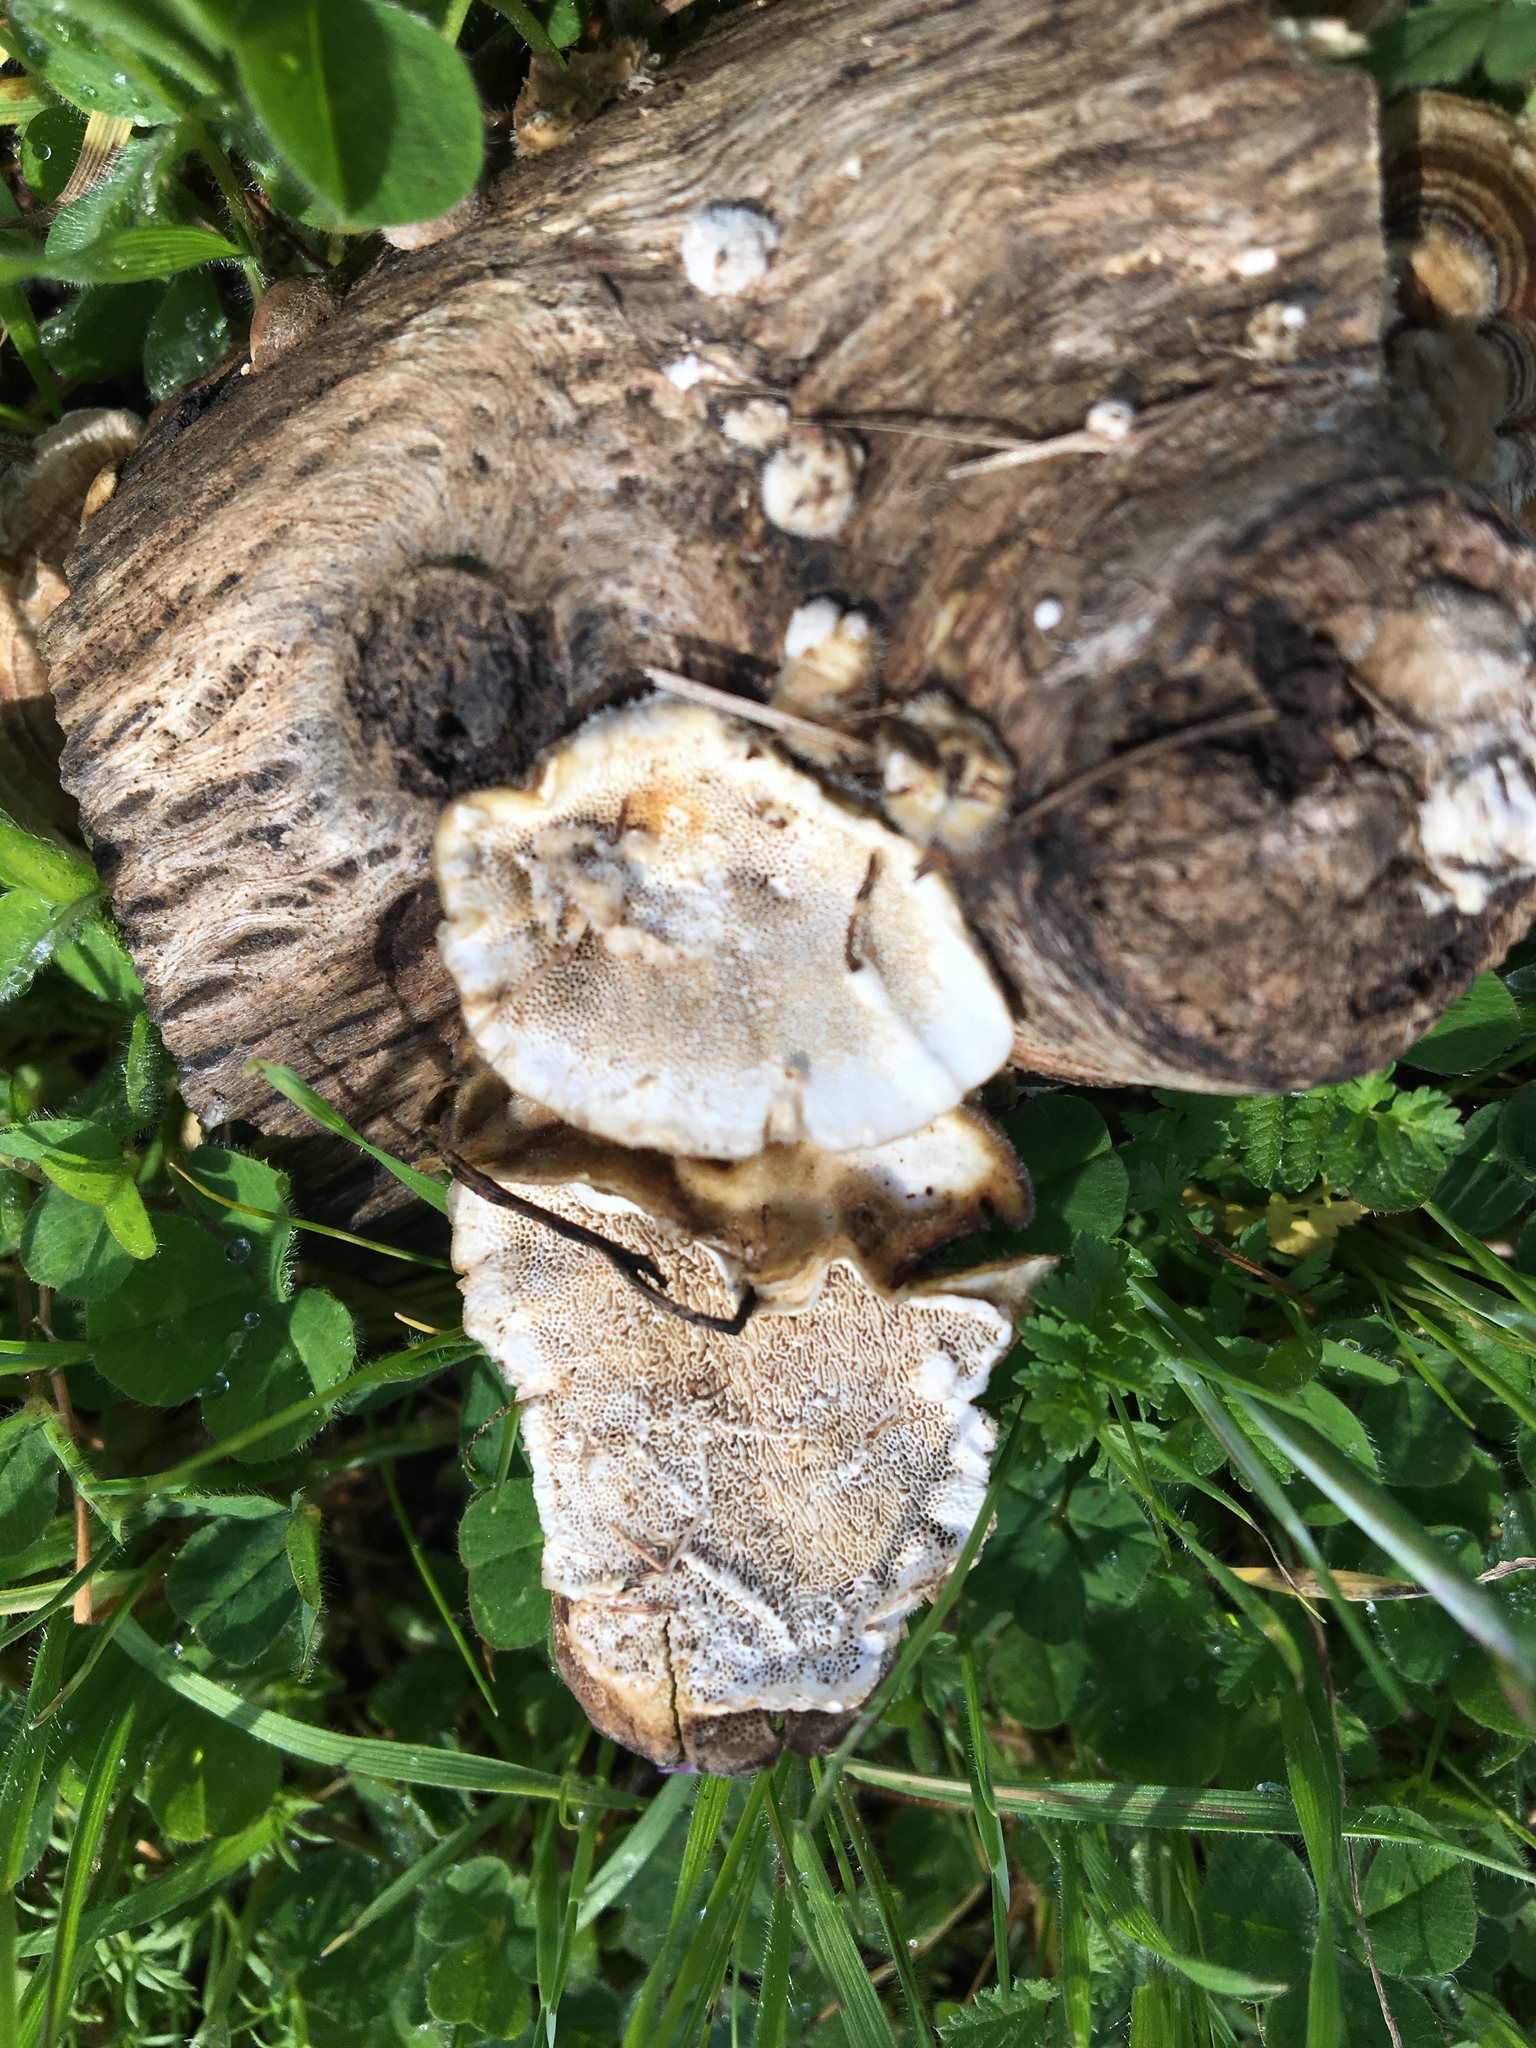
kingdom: Fungi
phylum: Basidiomycota
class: Agaricomycetes
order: Polyporales
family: Polyporaceae
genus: Trametes
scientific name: Trametes versicolor
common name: Turkeytail
